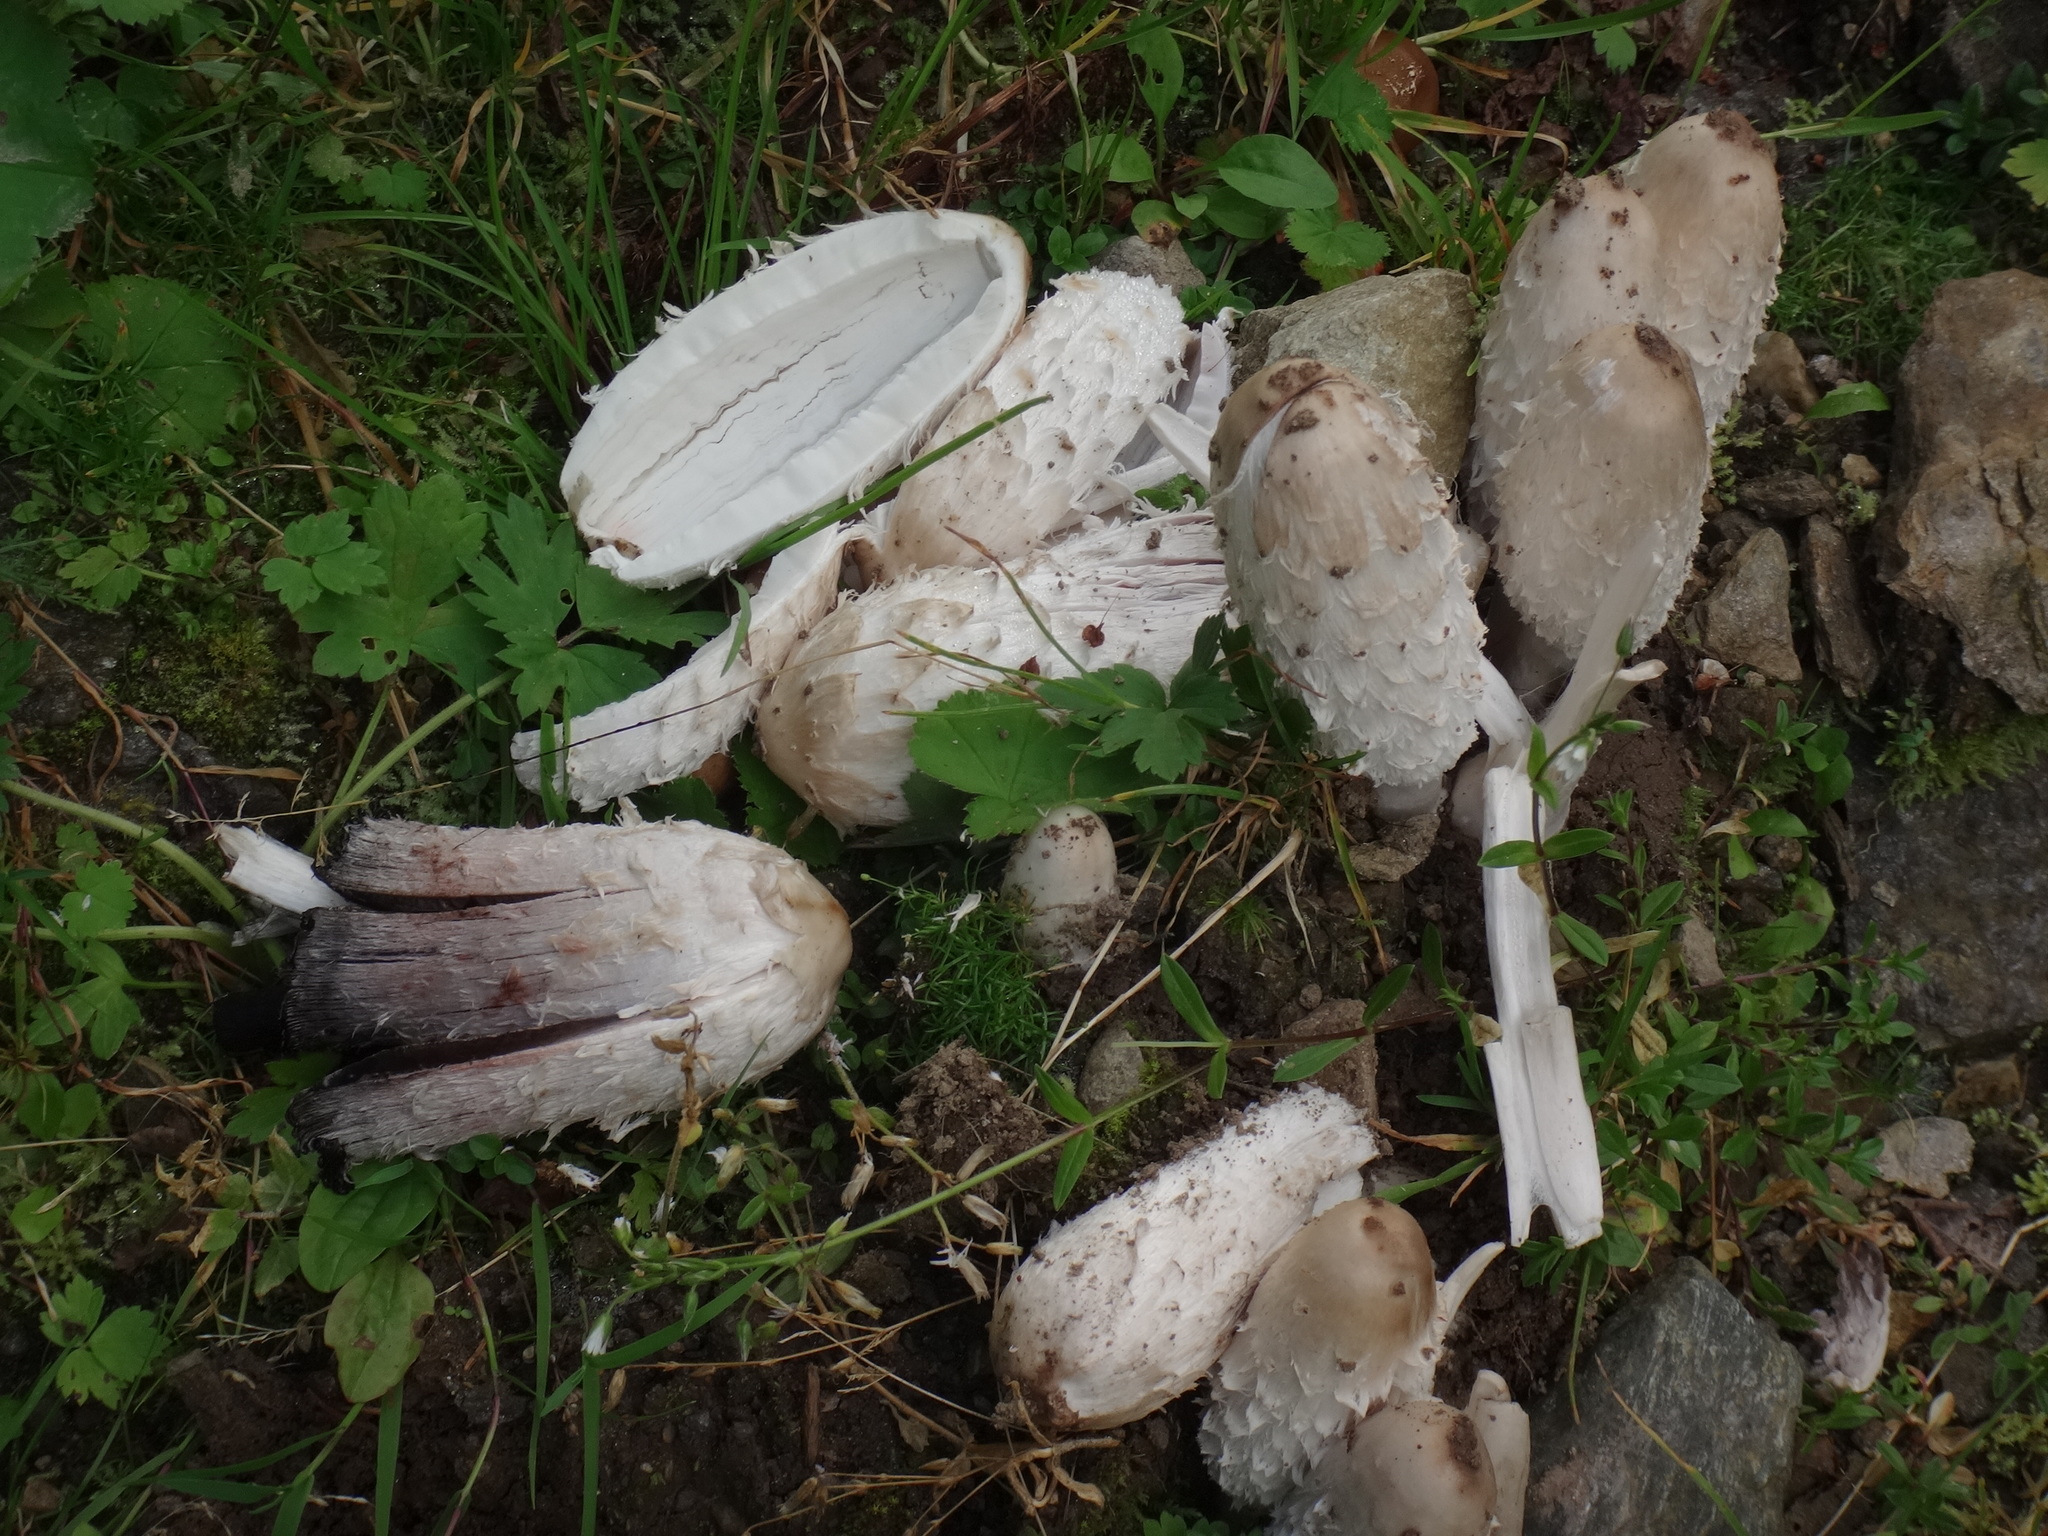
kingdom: Fungi
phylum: Basidiomycota
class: Agaricomycetes
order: Agaricales
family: Agaricaceae
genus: Coprinus
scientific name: Coprinus comatus
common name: Lawyer's wig
